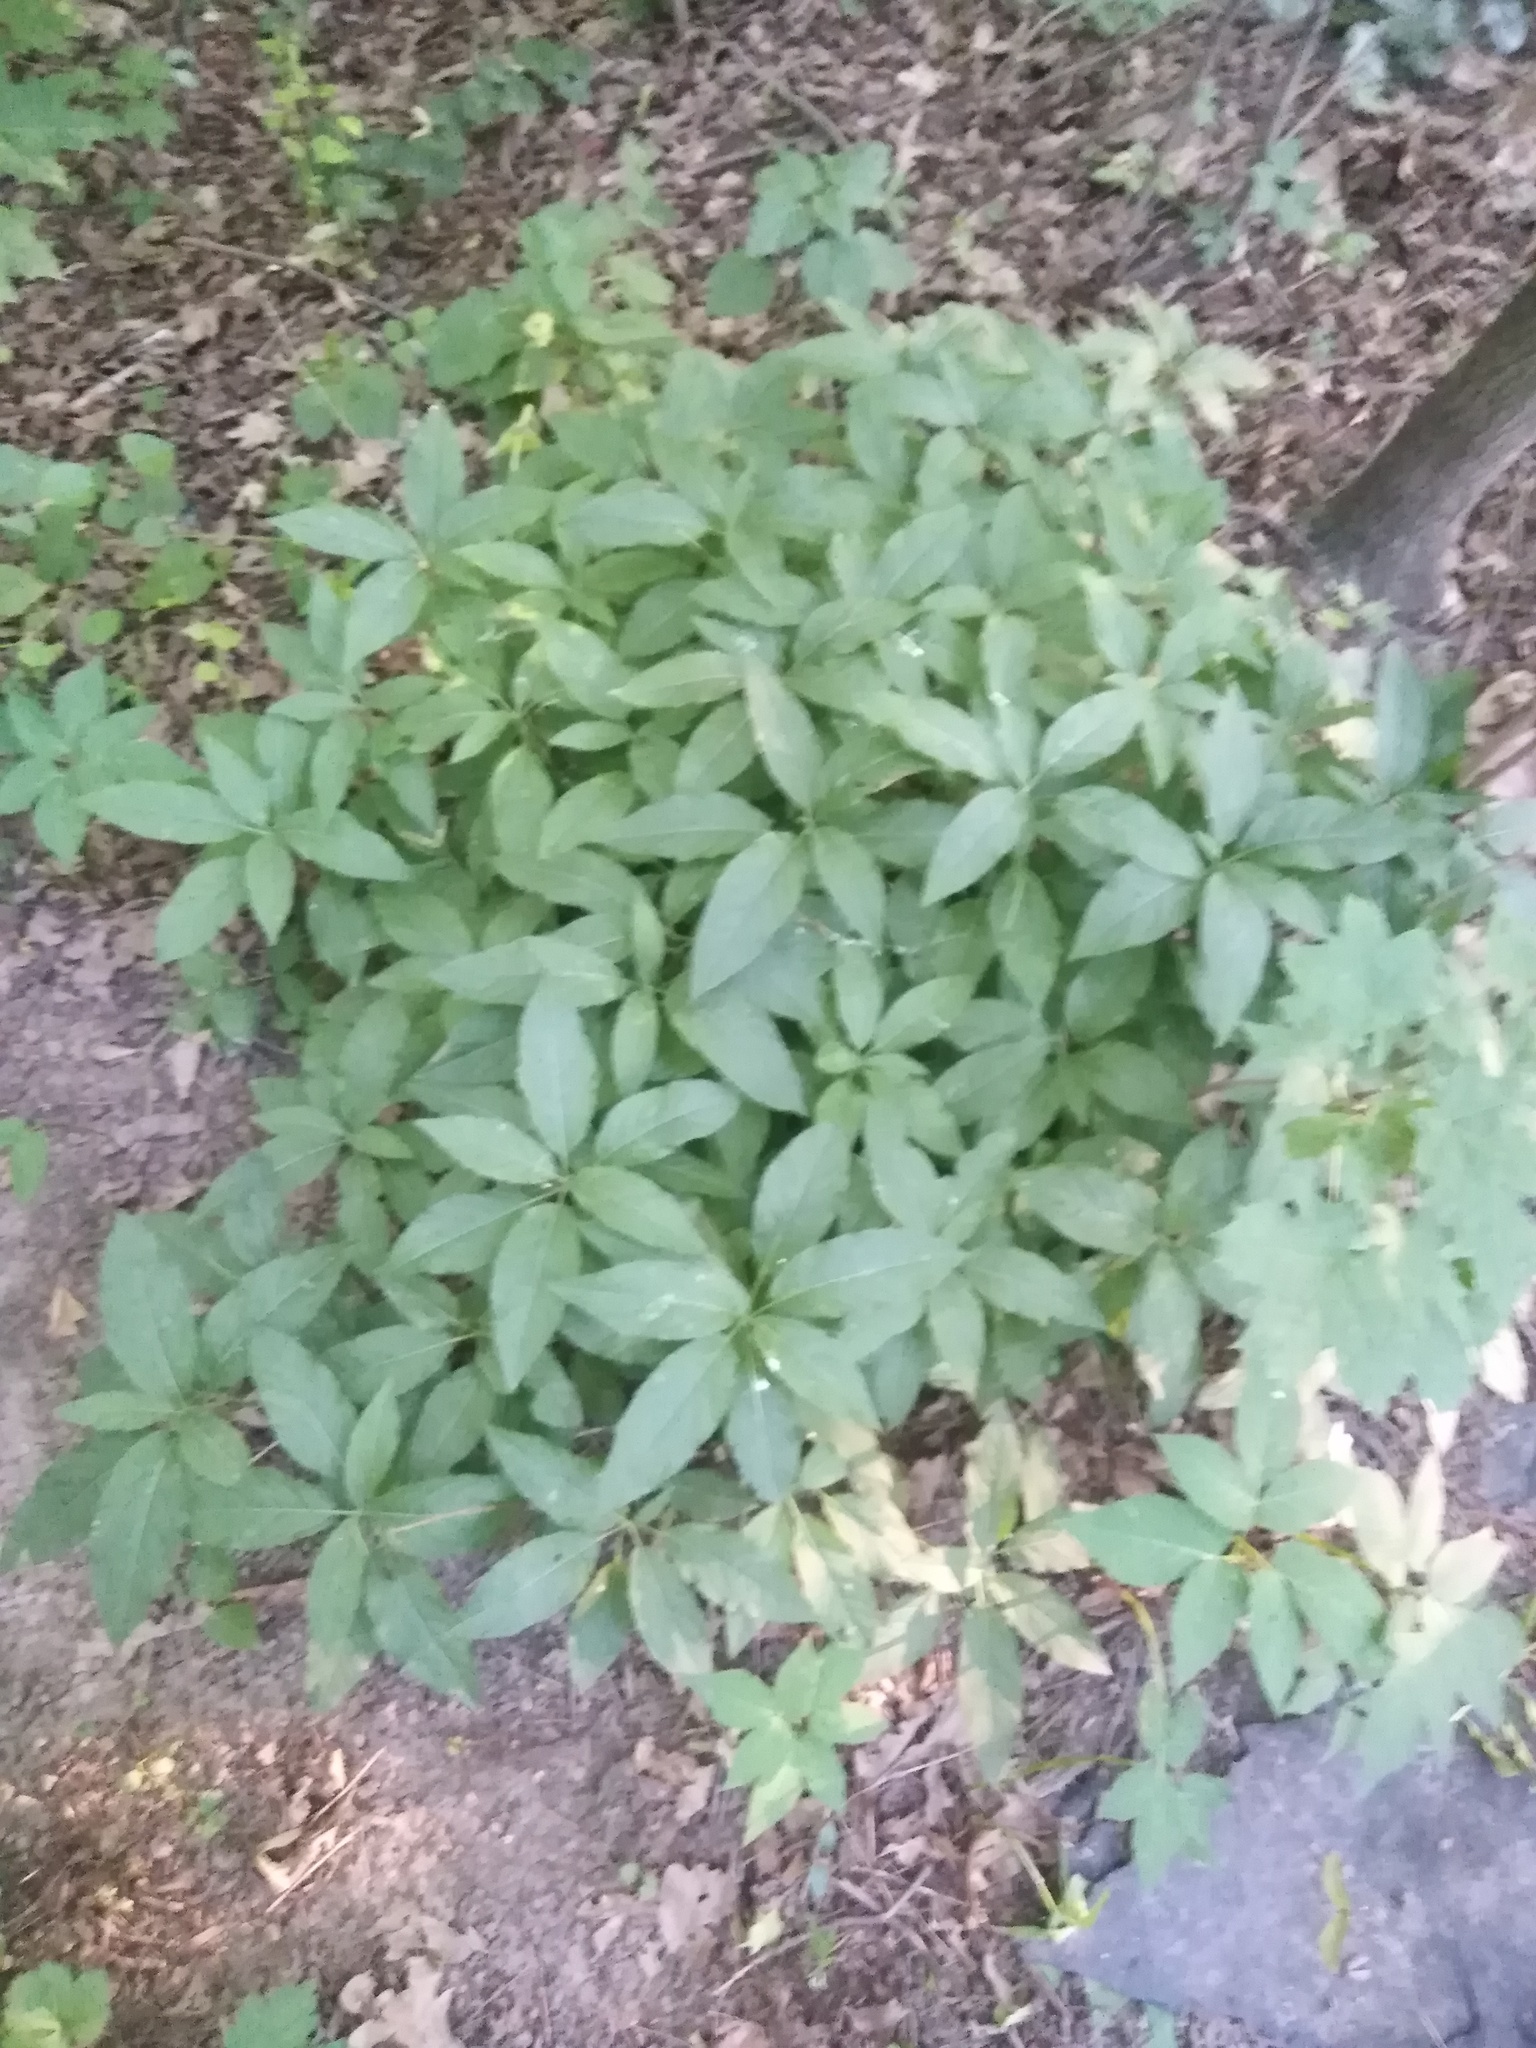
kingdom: Plantae
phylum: Tracheophyta
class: Magnoliopsida
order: Malpighiales
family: Euphorbiaceae
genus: Mercurialis
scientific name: Mercurialis perennis
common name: Dog mercury
